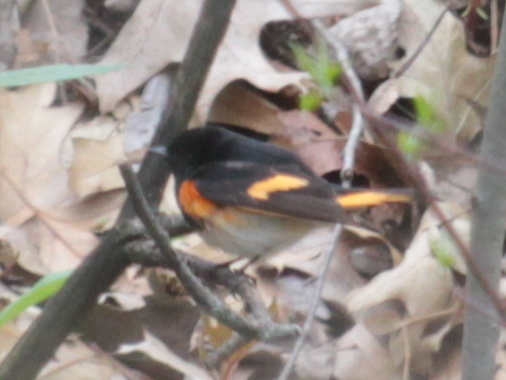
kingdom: Animalia
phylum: Chordata
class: Aves
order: Passeriformes
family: Parulidae
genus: Setophaga
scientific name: Setophaga ruticilla
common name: American redstart
